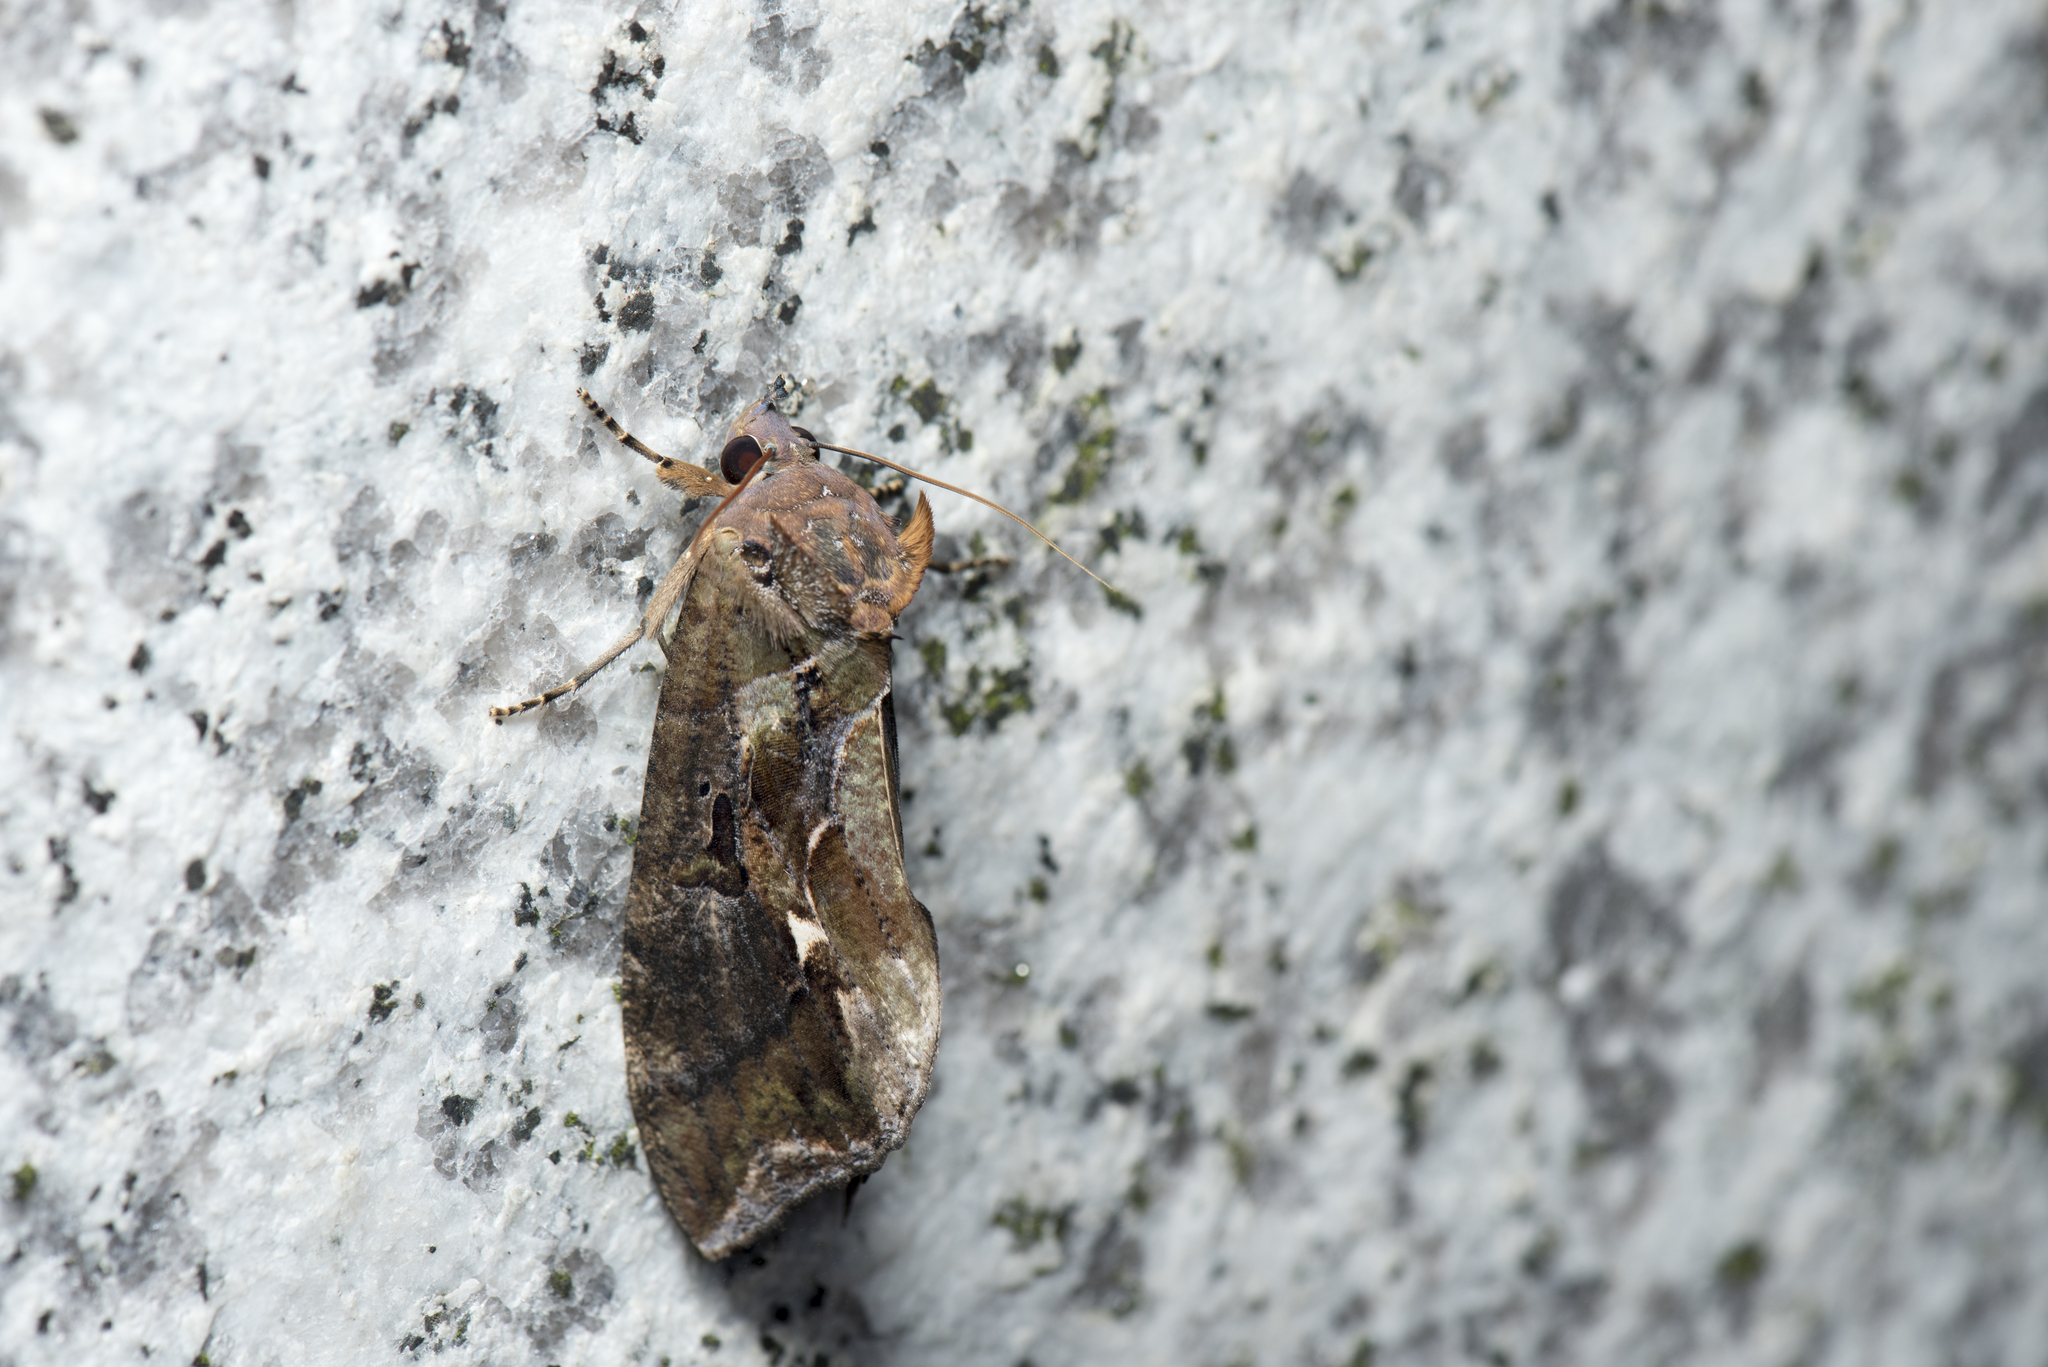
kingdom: Animalia
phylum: Arthropoda
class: Insecta
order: Lepidoptera
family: Erebidae
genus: Eudocima
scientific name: Eudocima phalonia
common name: Wasp
